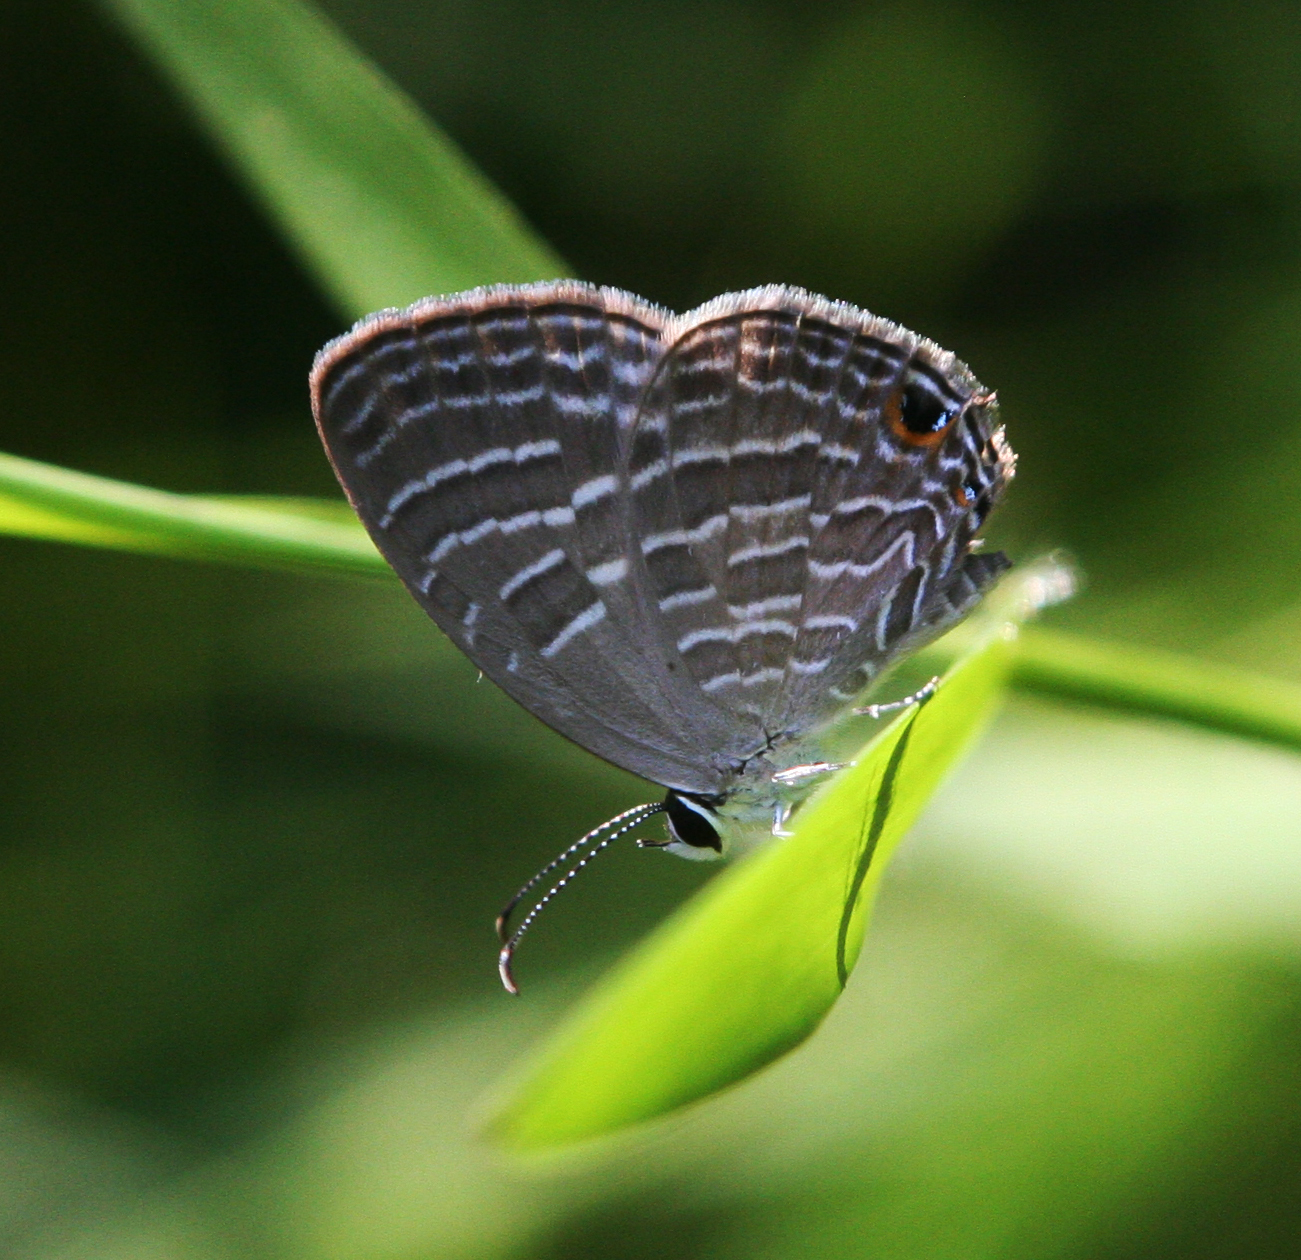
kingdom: Animalia
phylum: Arthropoda
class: Insecta
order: Lepidoptera
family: Lycaenidae
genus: Jamides
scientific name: Jamides celeno
